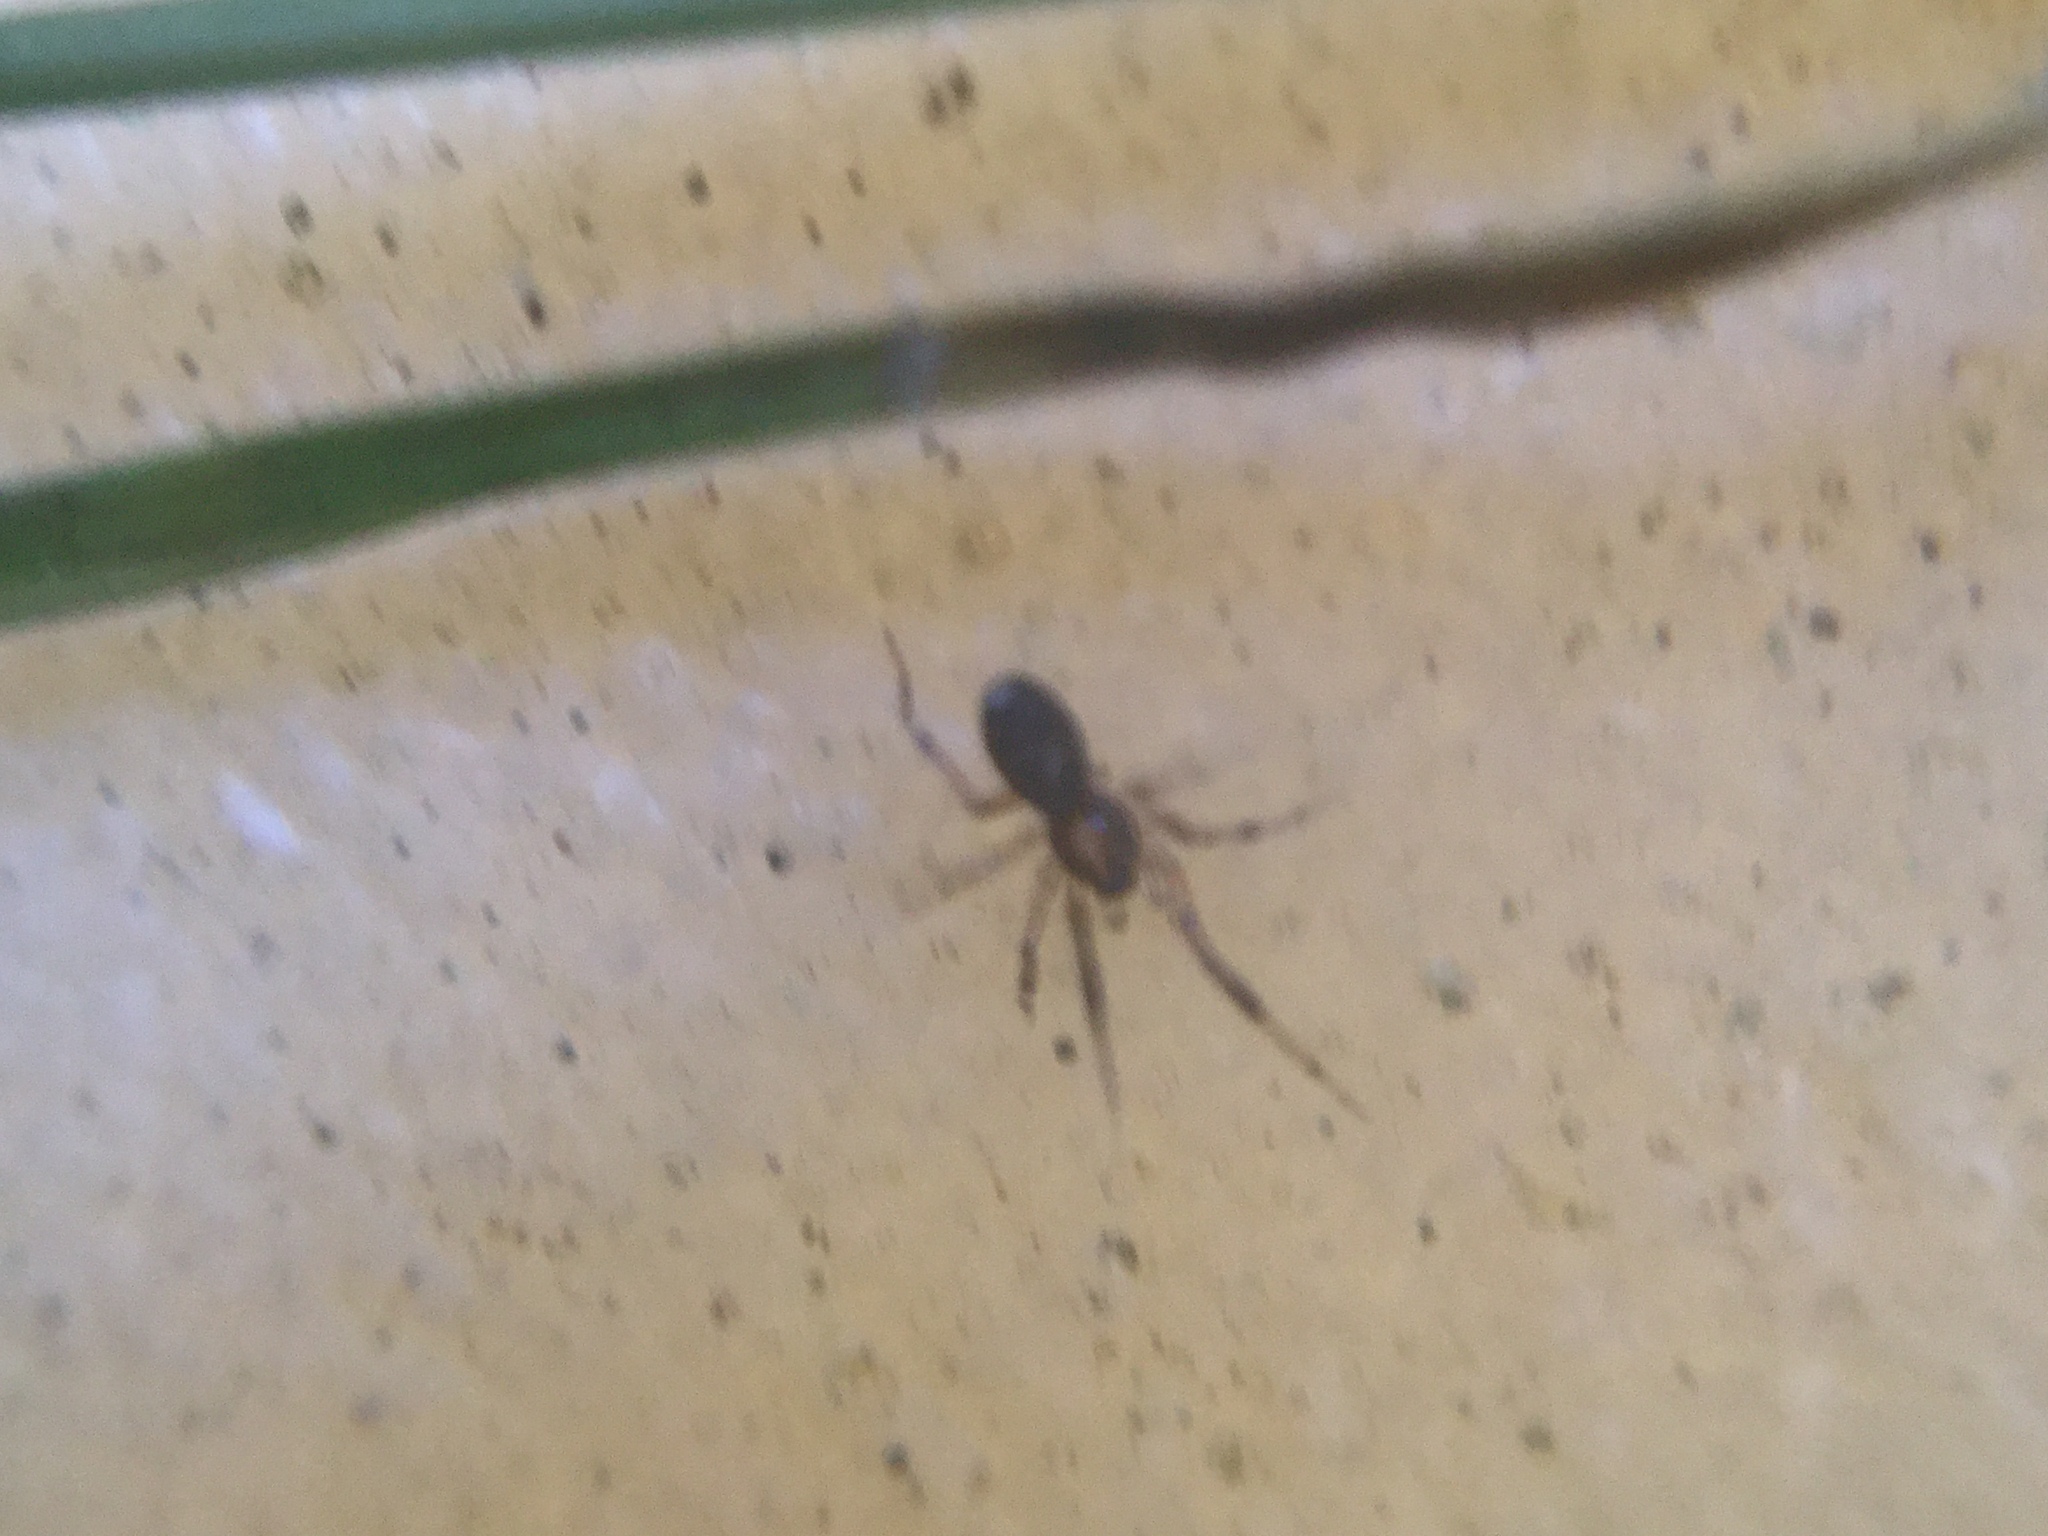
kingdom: Animalia
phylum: Arthropoda
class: Arachnida
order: Araneae
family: Phrurolithidae
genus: Phrurotimpus
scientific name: Phrurotimpus borealis
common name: Greater ant-mimic corinne spider
